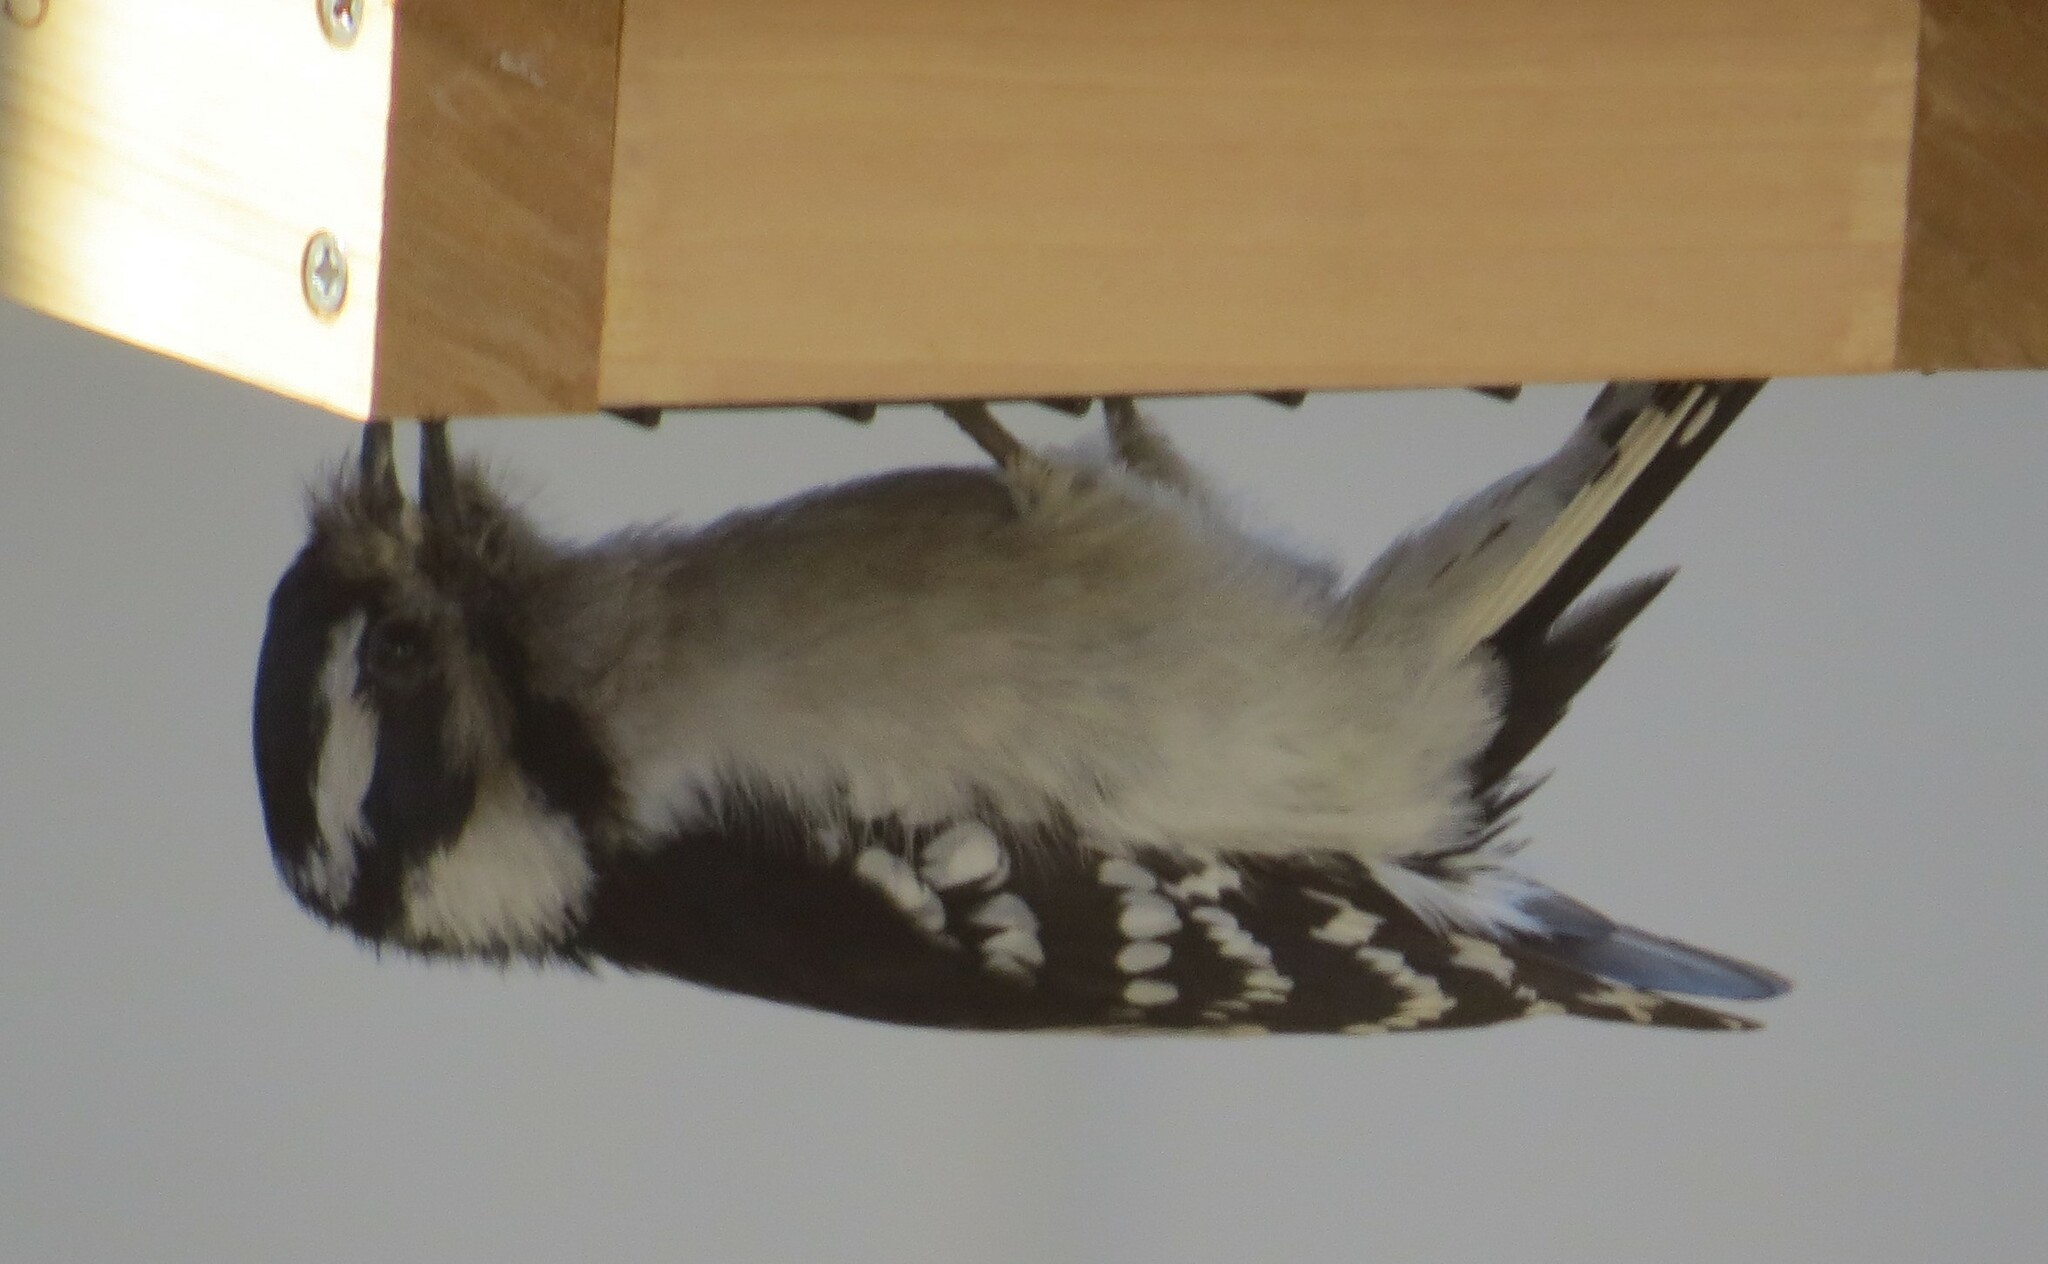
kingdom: Animalia
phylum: Chordata
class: Aves
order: Piciformes
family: Picidae
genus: Dryobates
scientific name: Dryobates pubescens
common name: Downy woodpecker
